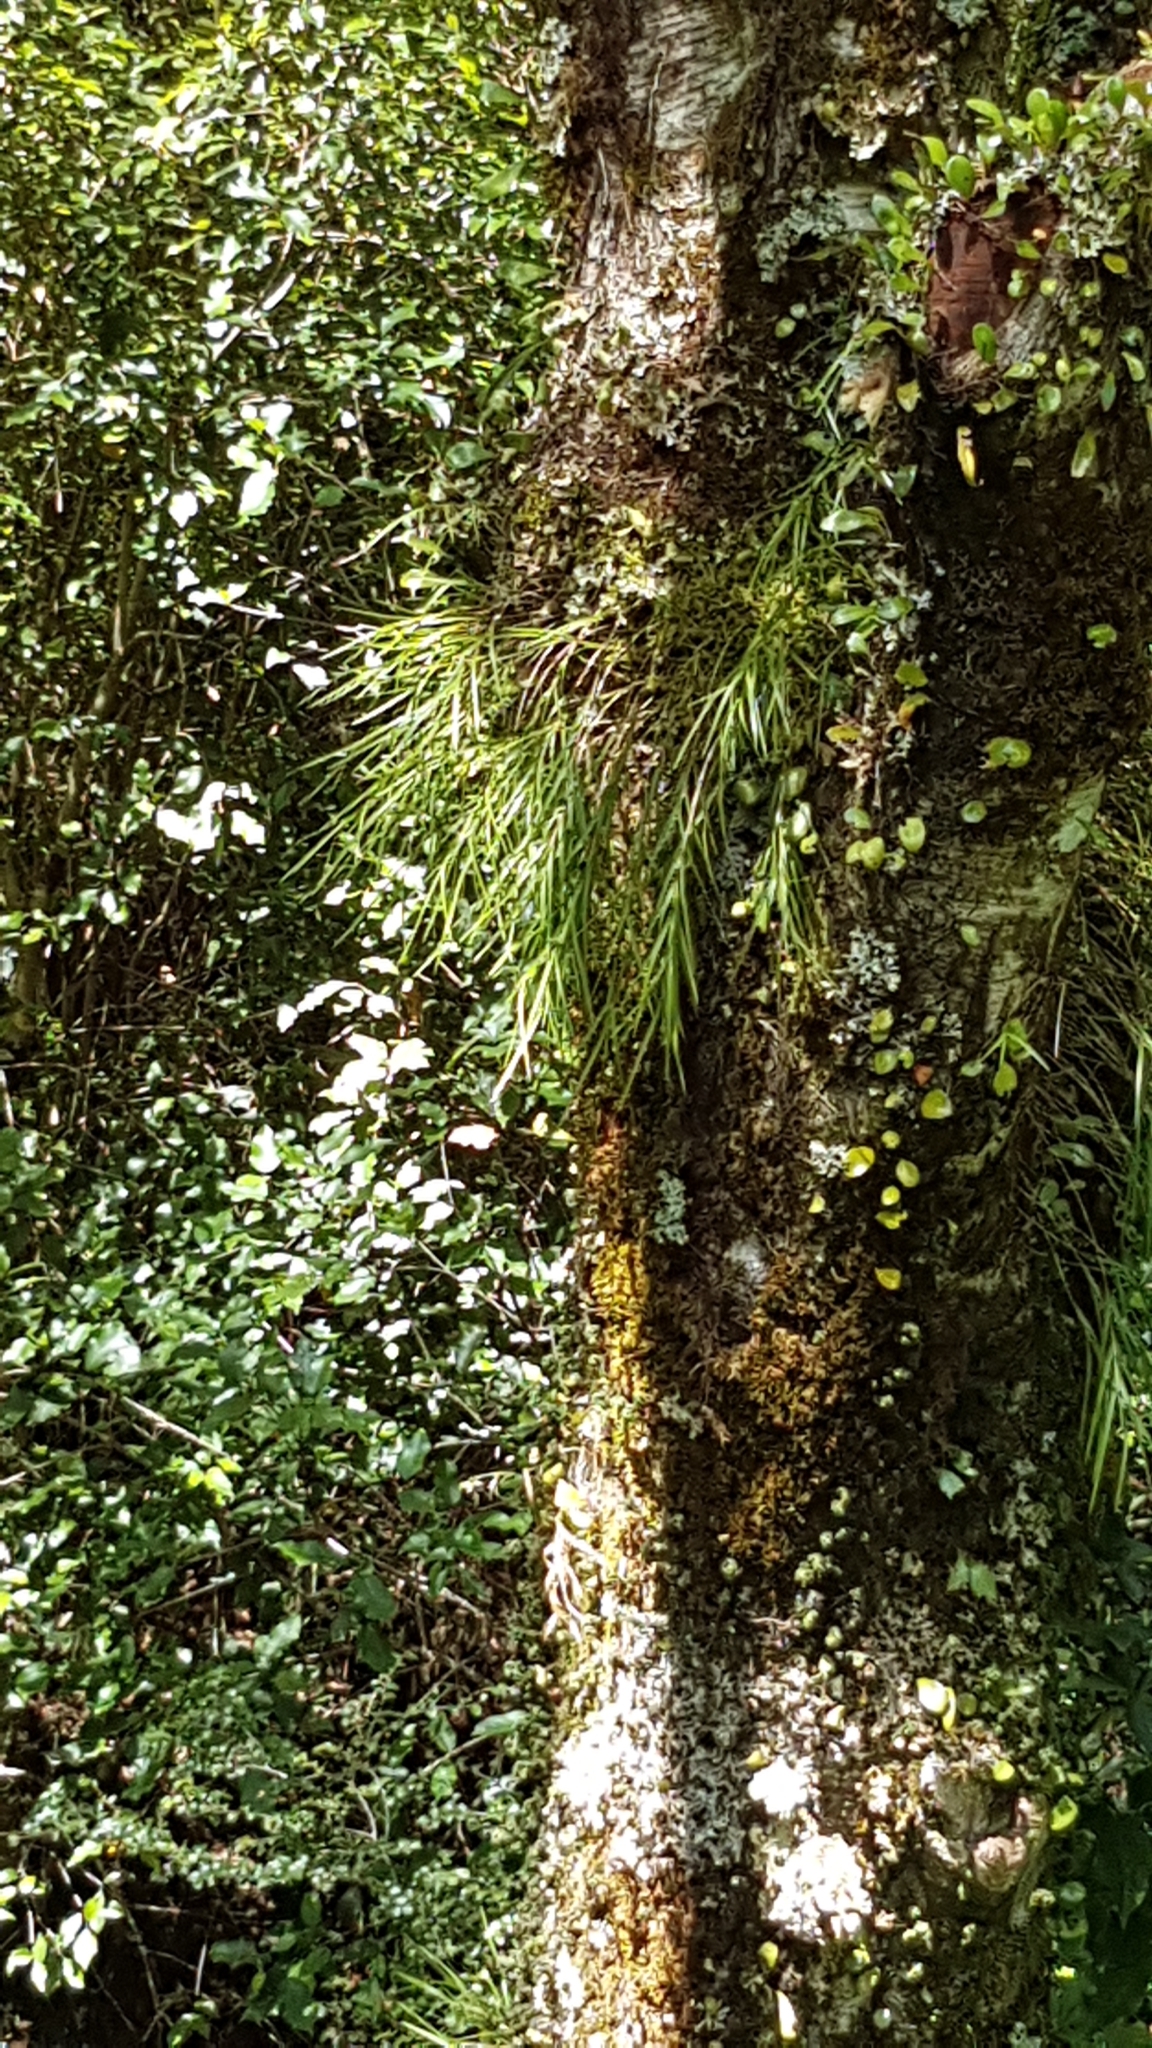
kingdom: Plantae
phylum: Tracheophyta
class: Liliopsida
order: Asparagales
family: Orchidaceae
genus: Earina
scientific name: Earina mucronata
